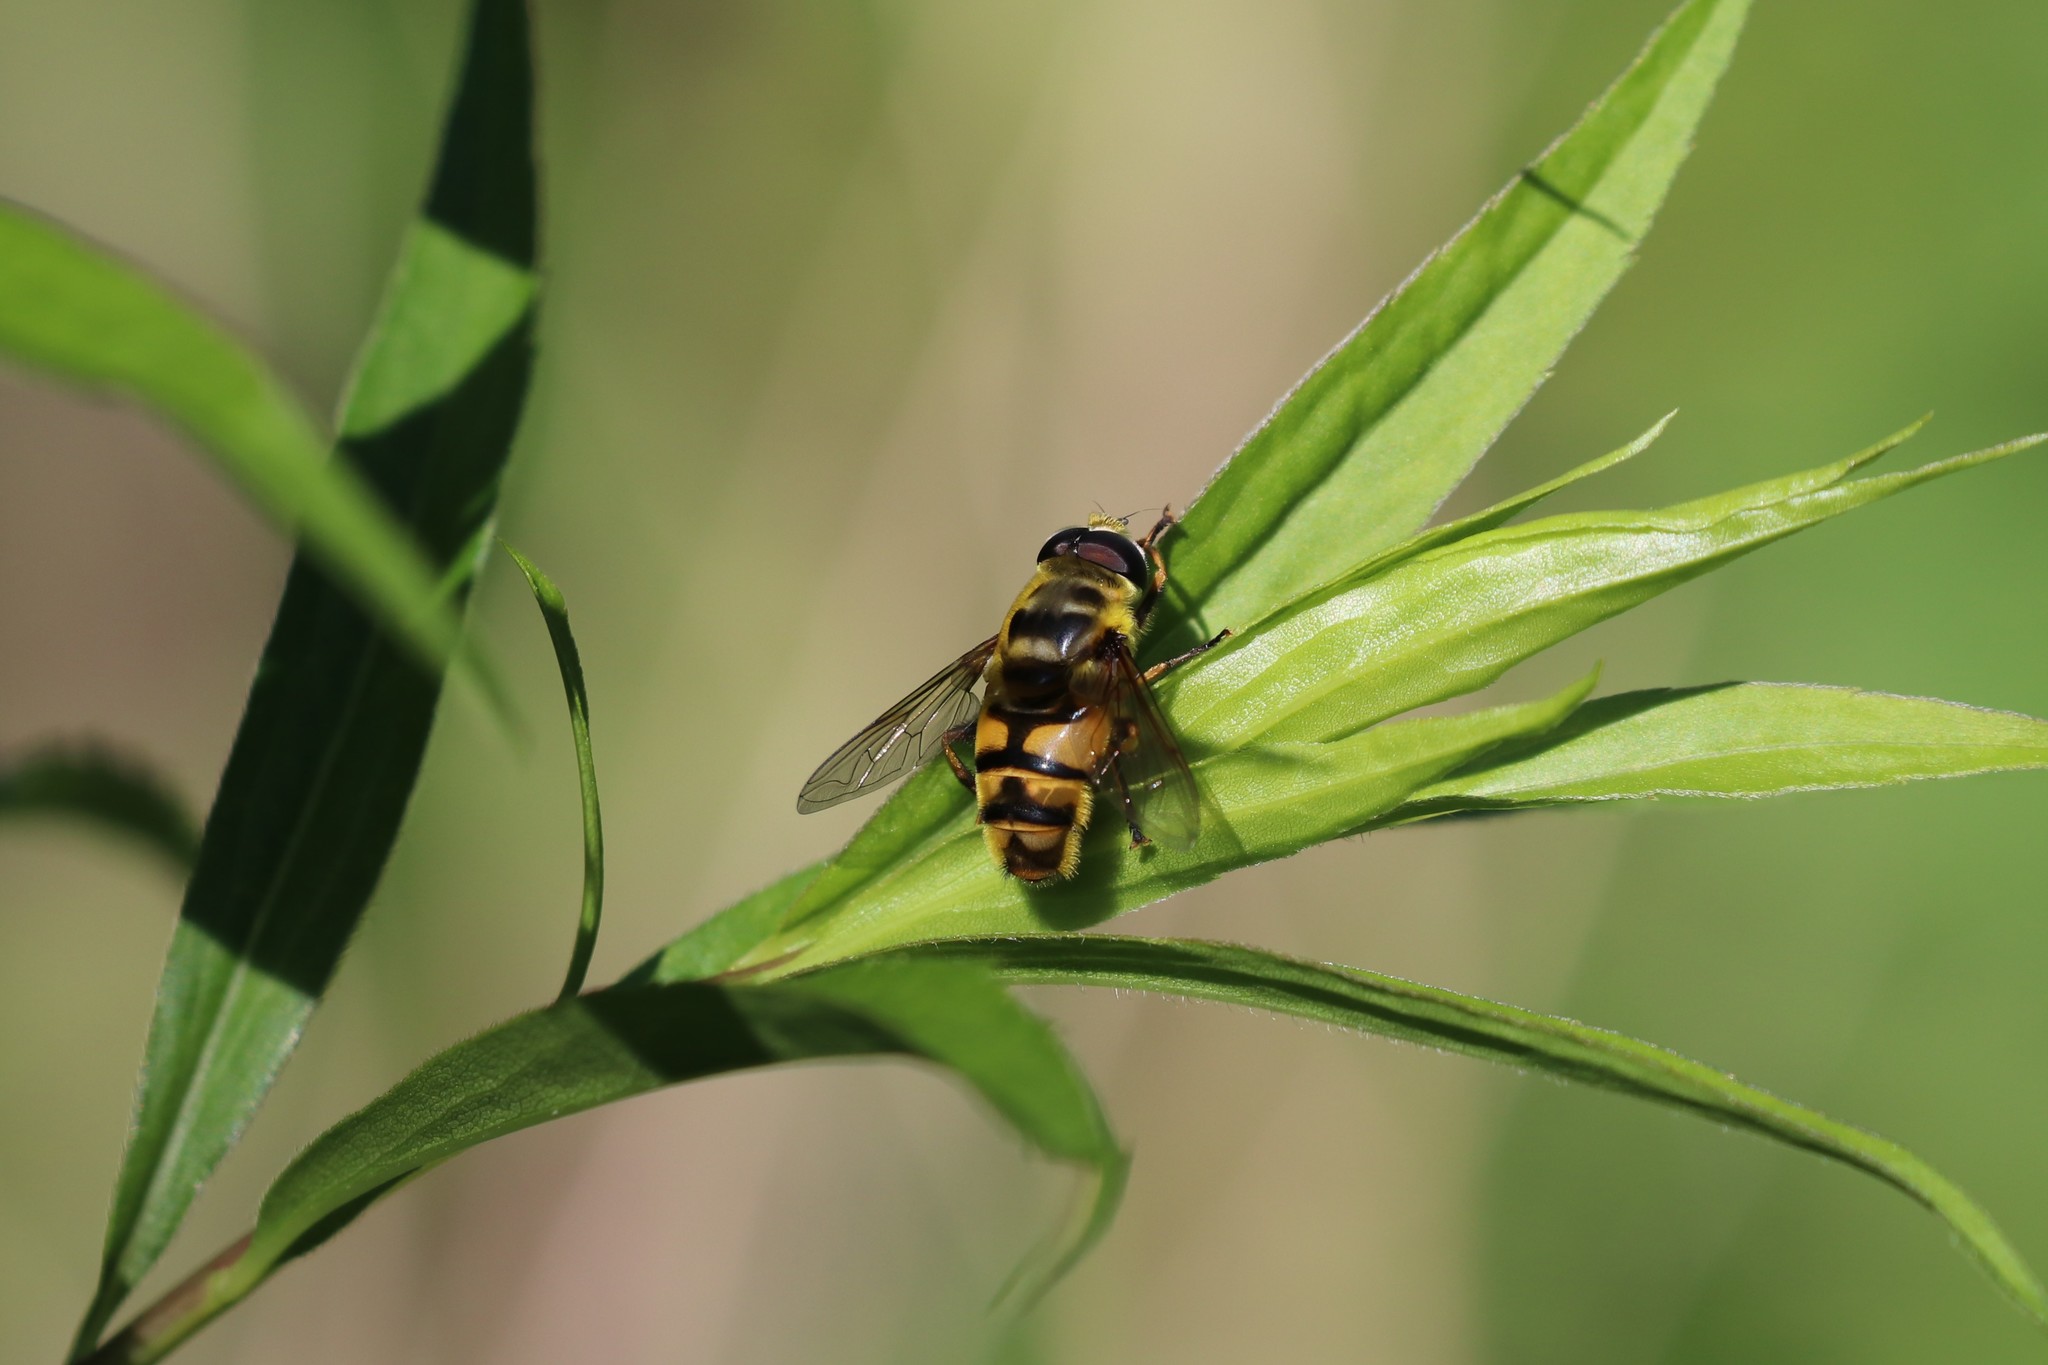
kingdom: Animalia
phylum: Arthropoda
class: Insecta
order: Diptera
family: Syrphidae
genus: Myathropa
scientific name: Myathropa florea
